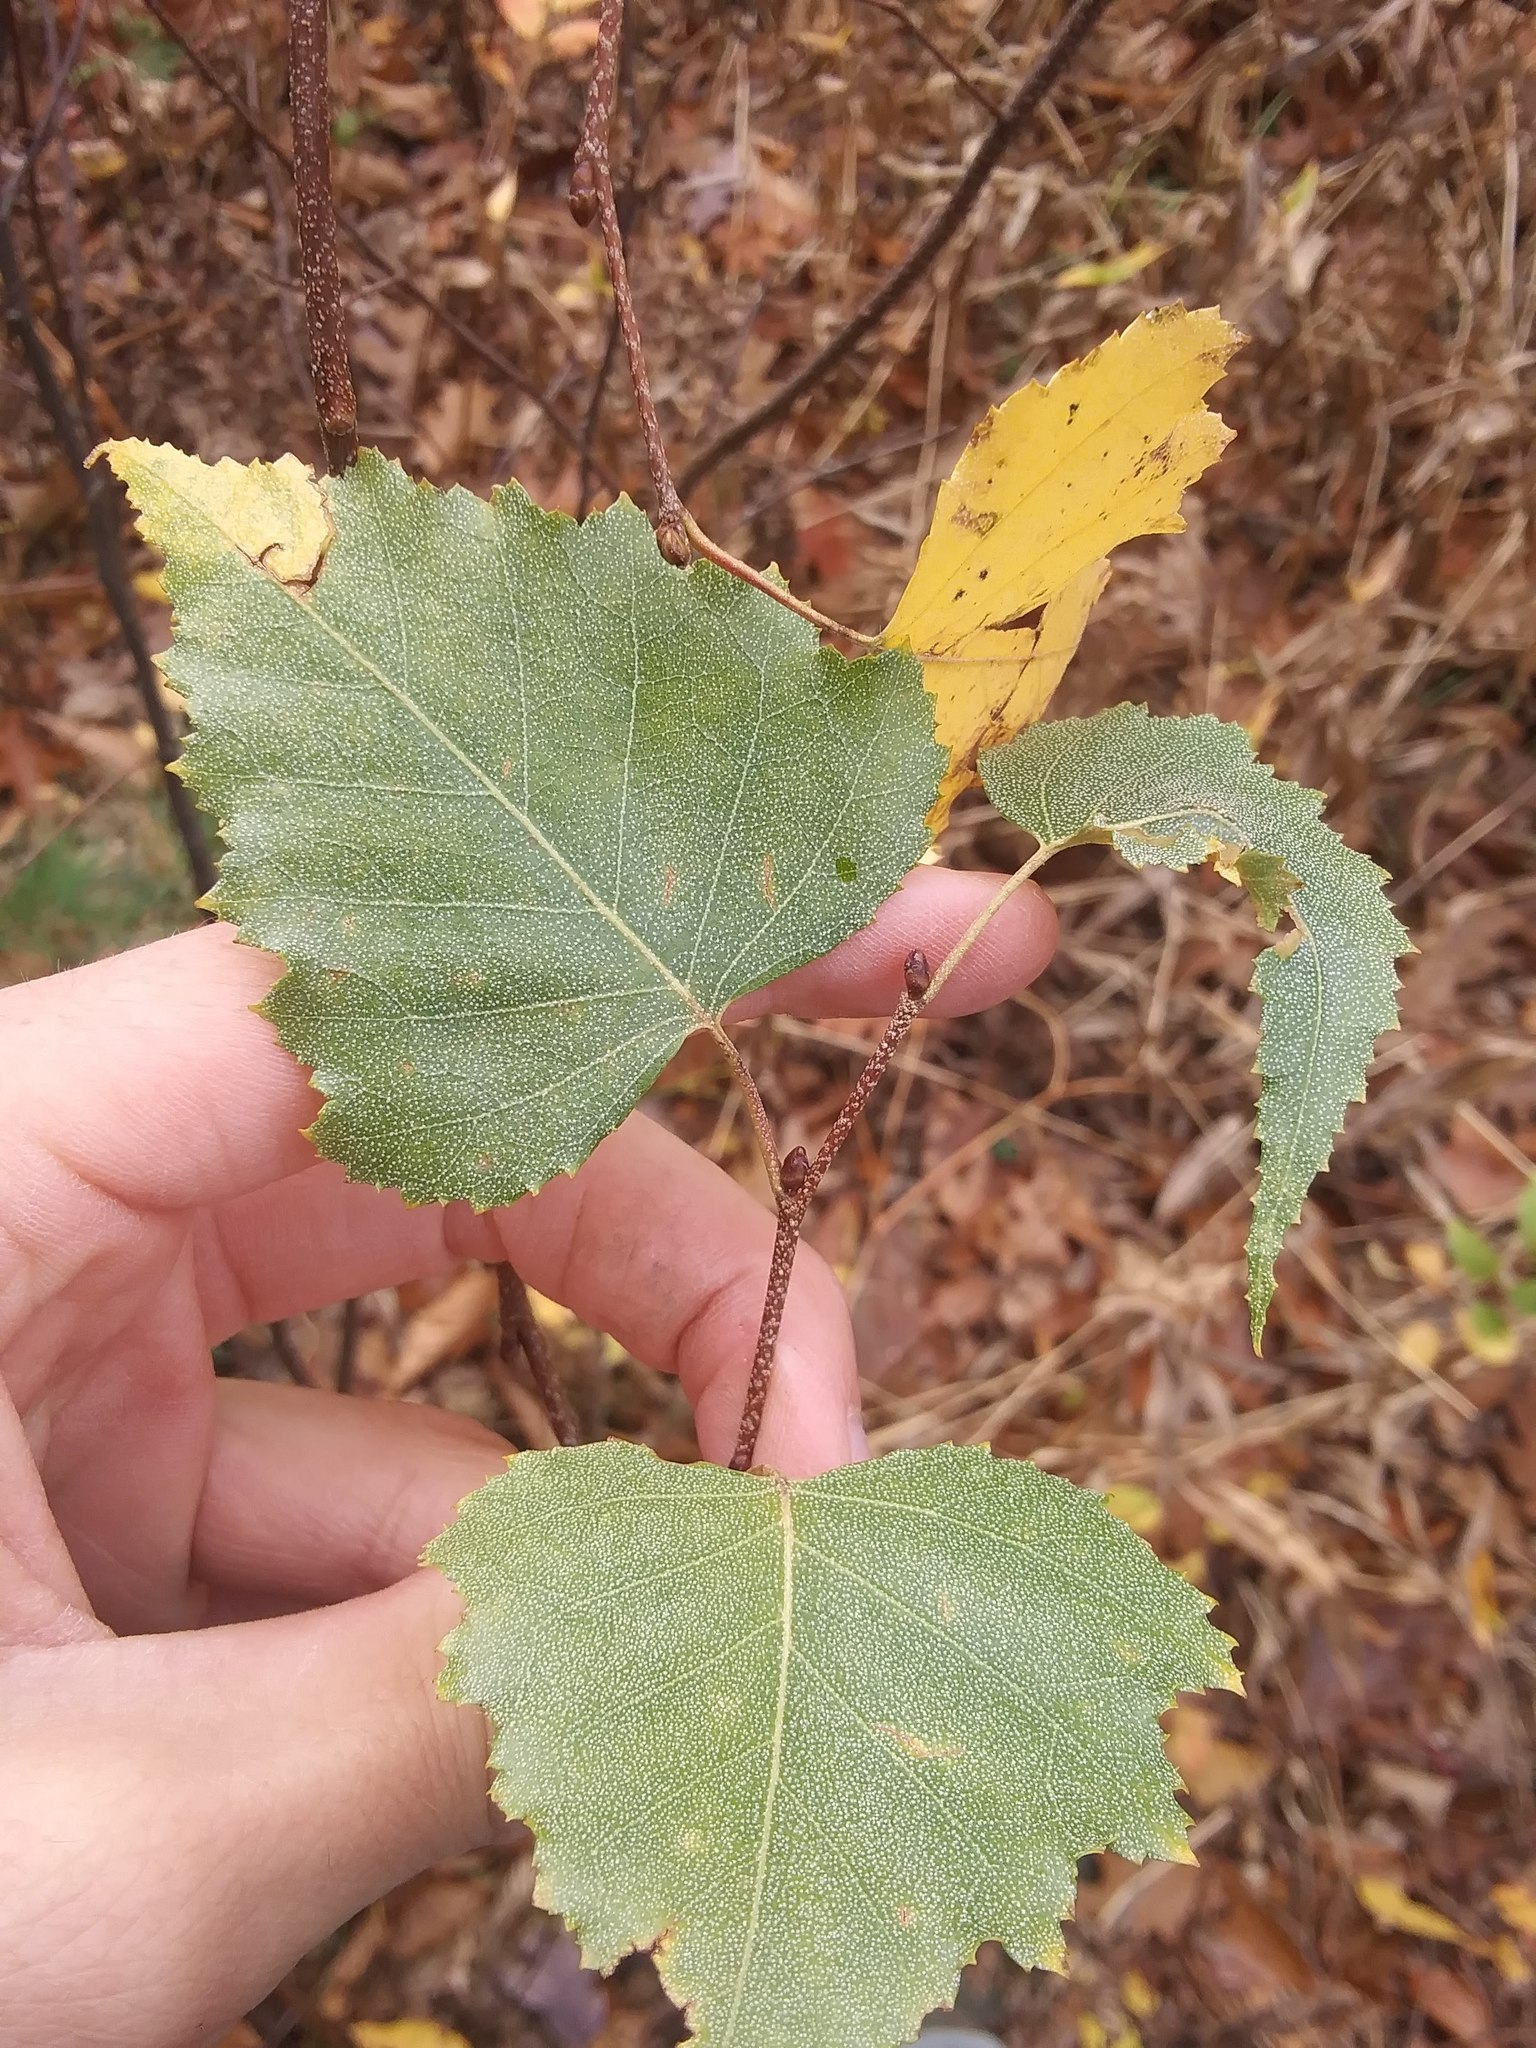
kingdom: Plantae
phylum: Tracheophyta
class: Magnoliopsida
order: Fagales
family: Betulaceae
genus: Betula
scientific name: Betula populifolia
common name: Fire birch
